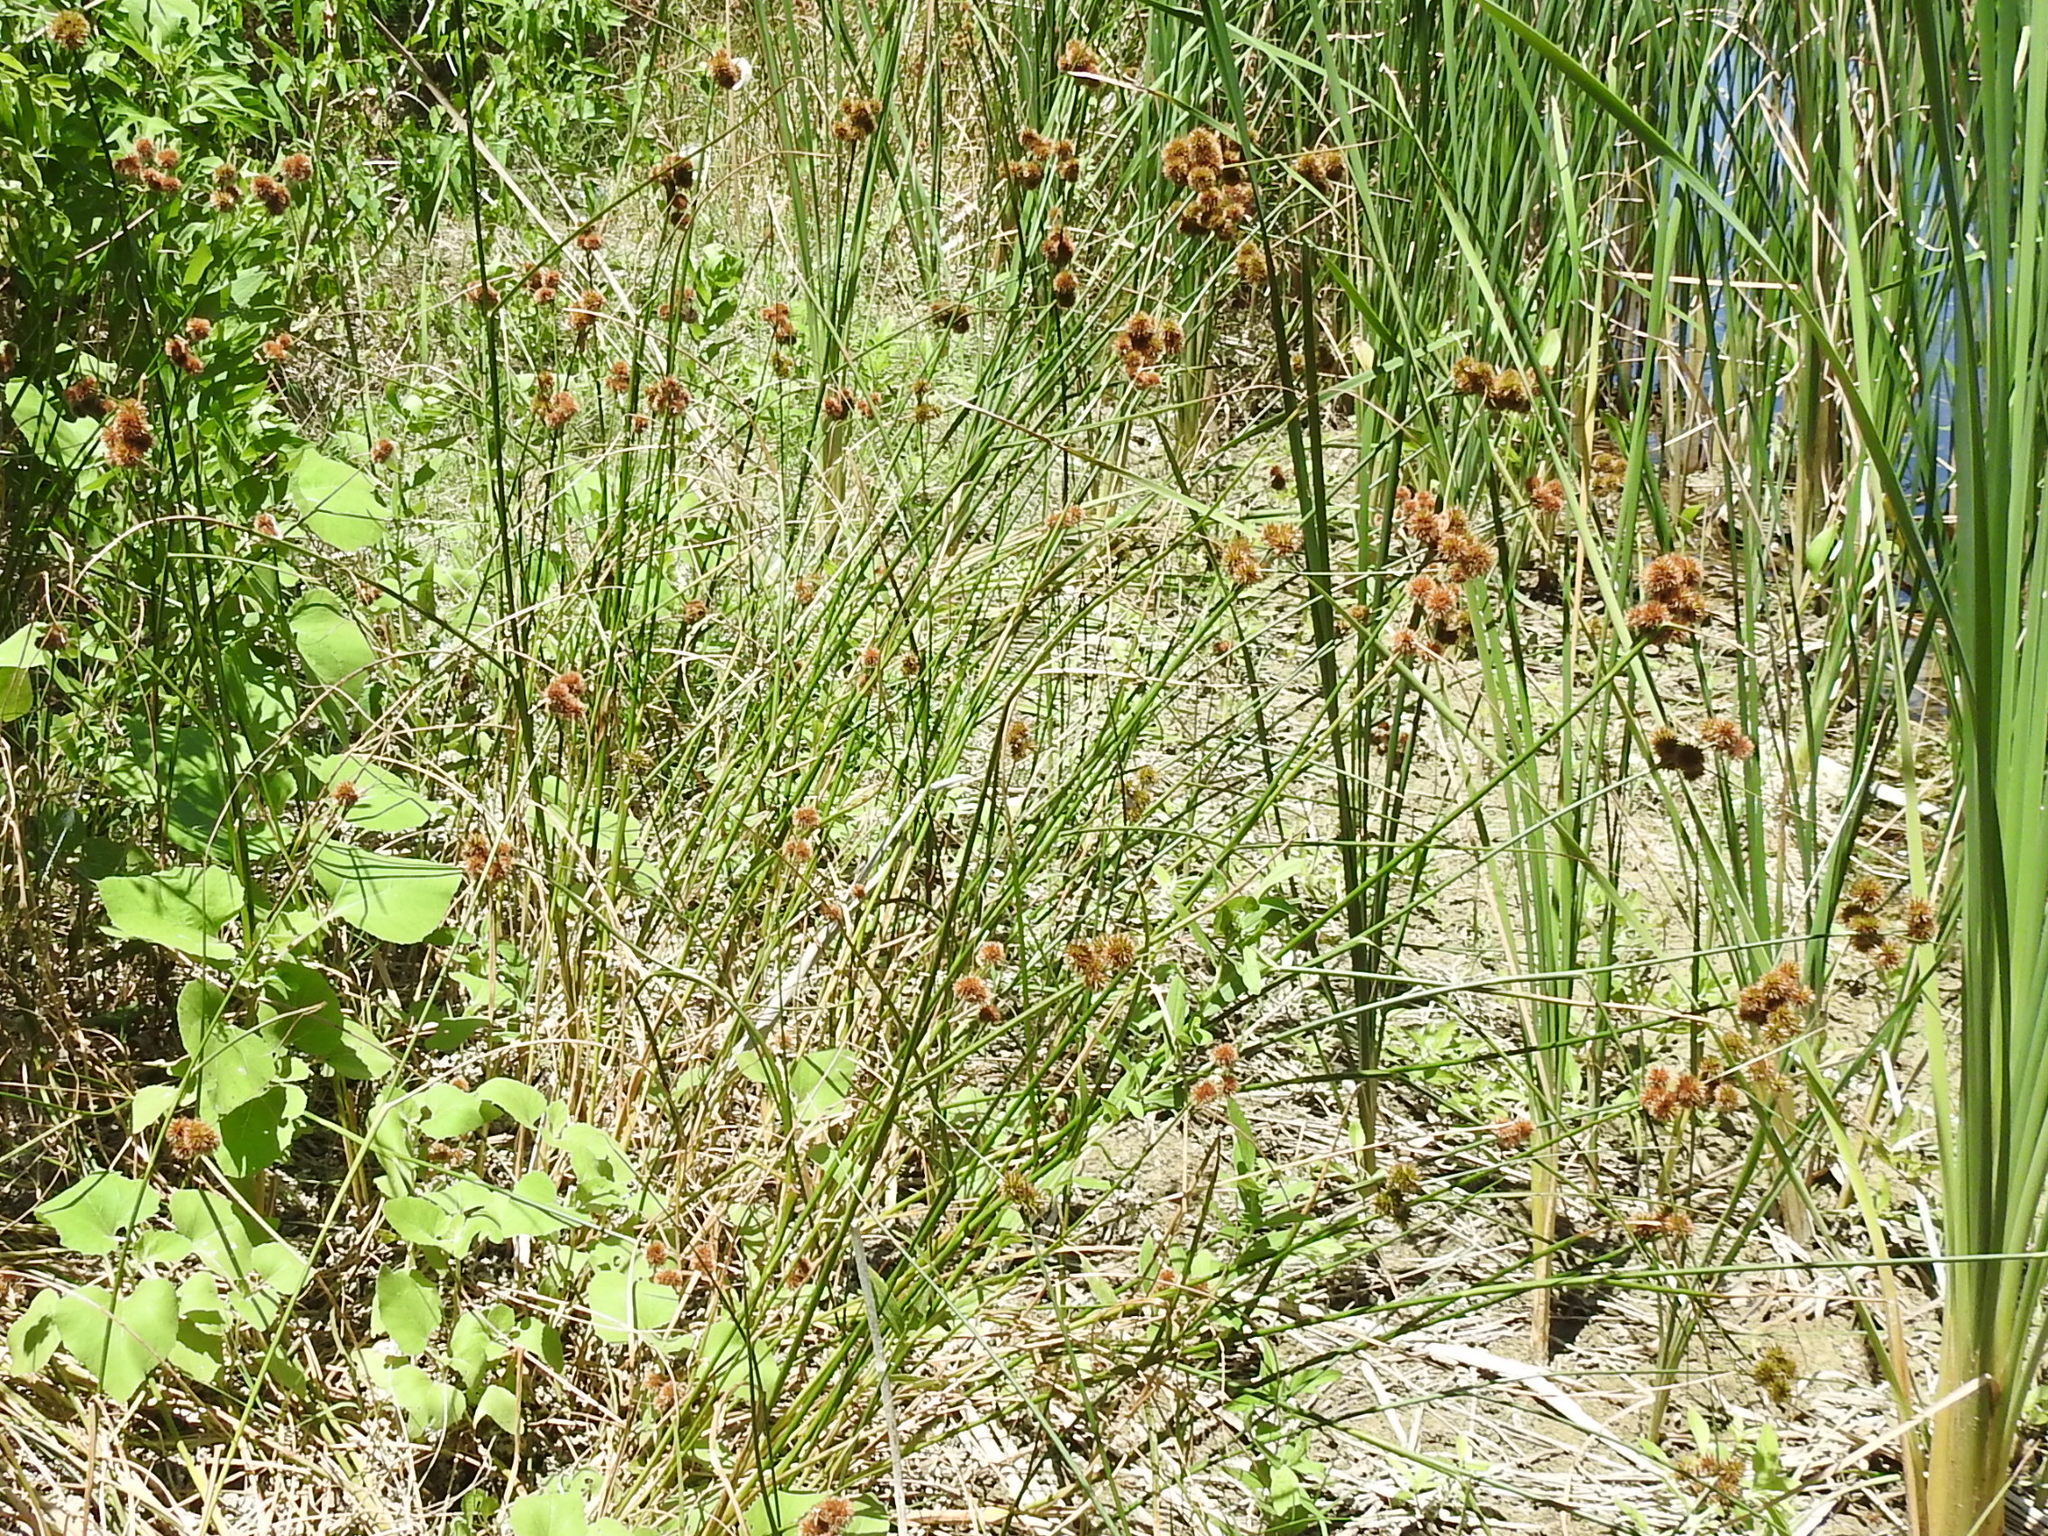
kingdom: Plantae
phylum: Tracheophyta
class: Liliopsida
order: Poales
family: Juncaceae
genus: Juncus
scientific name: Juncus torreyi
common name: Torrey's rush
